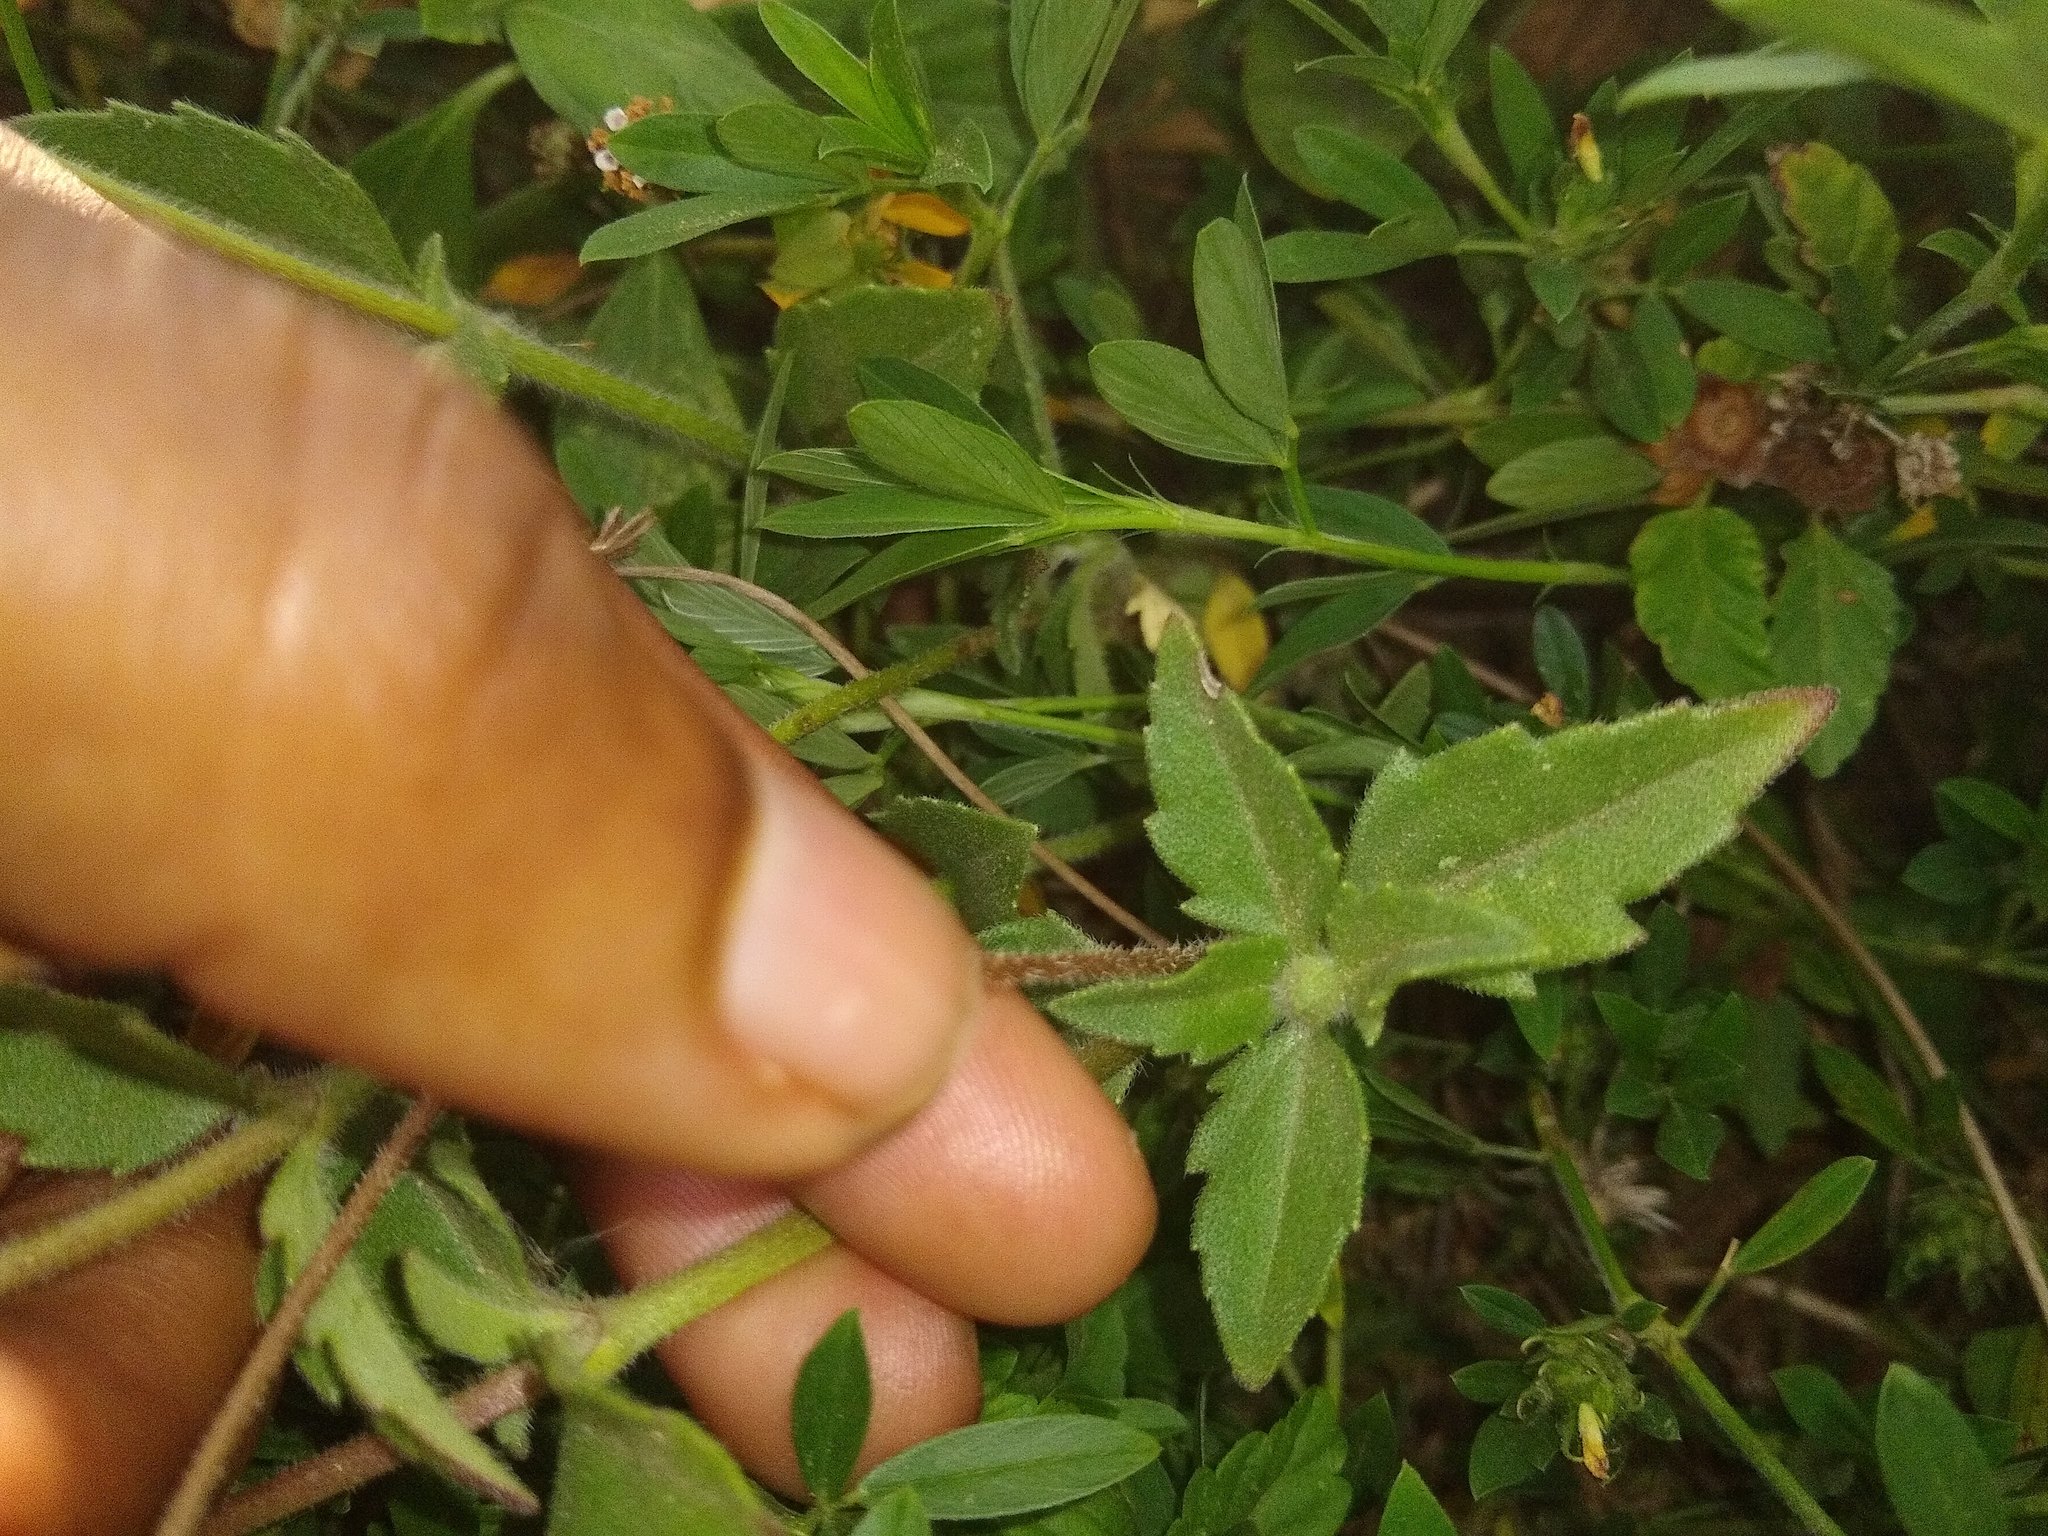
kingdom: Plantae
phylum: Tracheophyta
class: Magnoliopsida
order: Asterales
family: Asteraceae
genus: Tridax
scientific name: Tridax procumbens
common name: Coatbuttons
